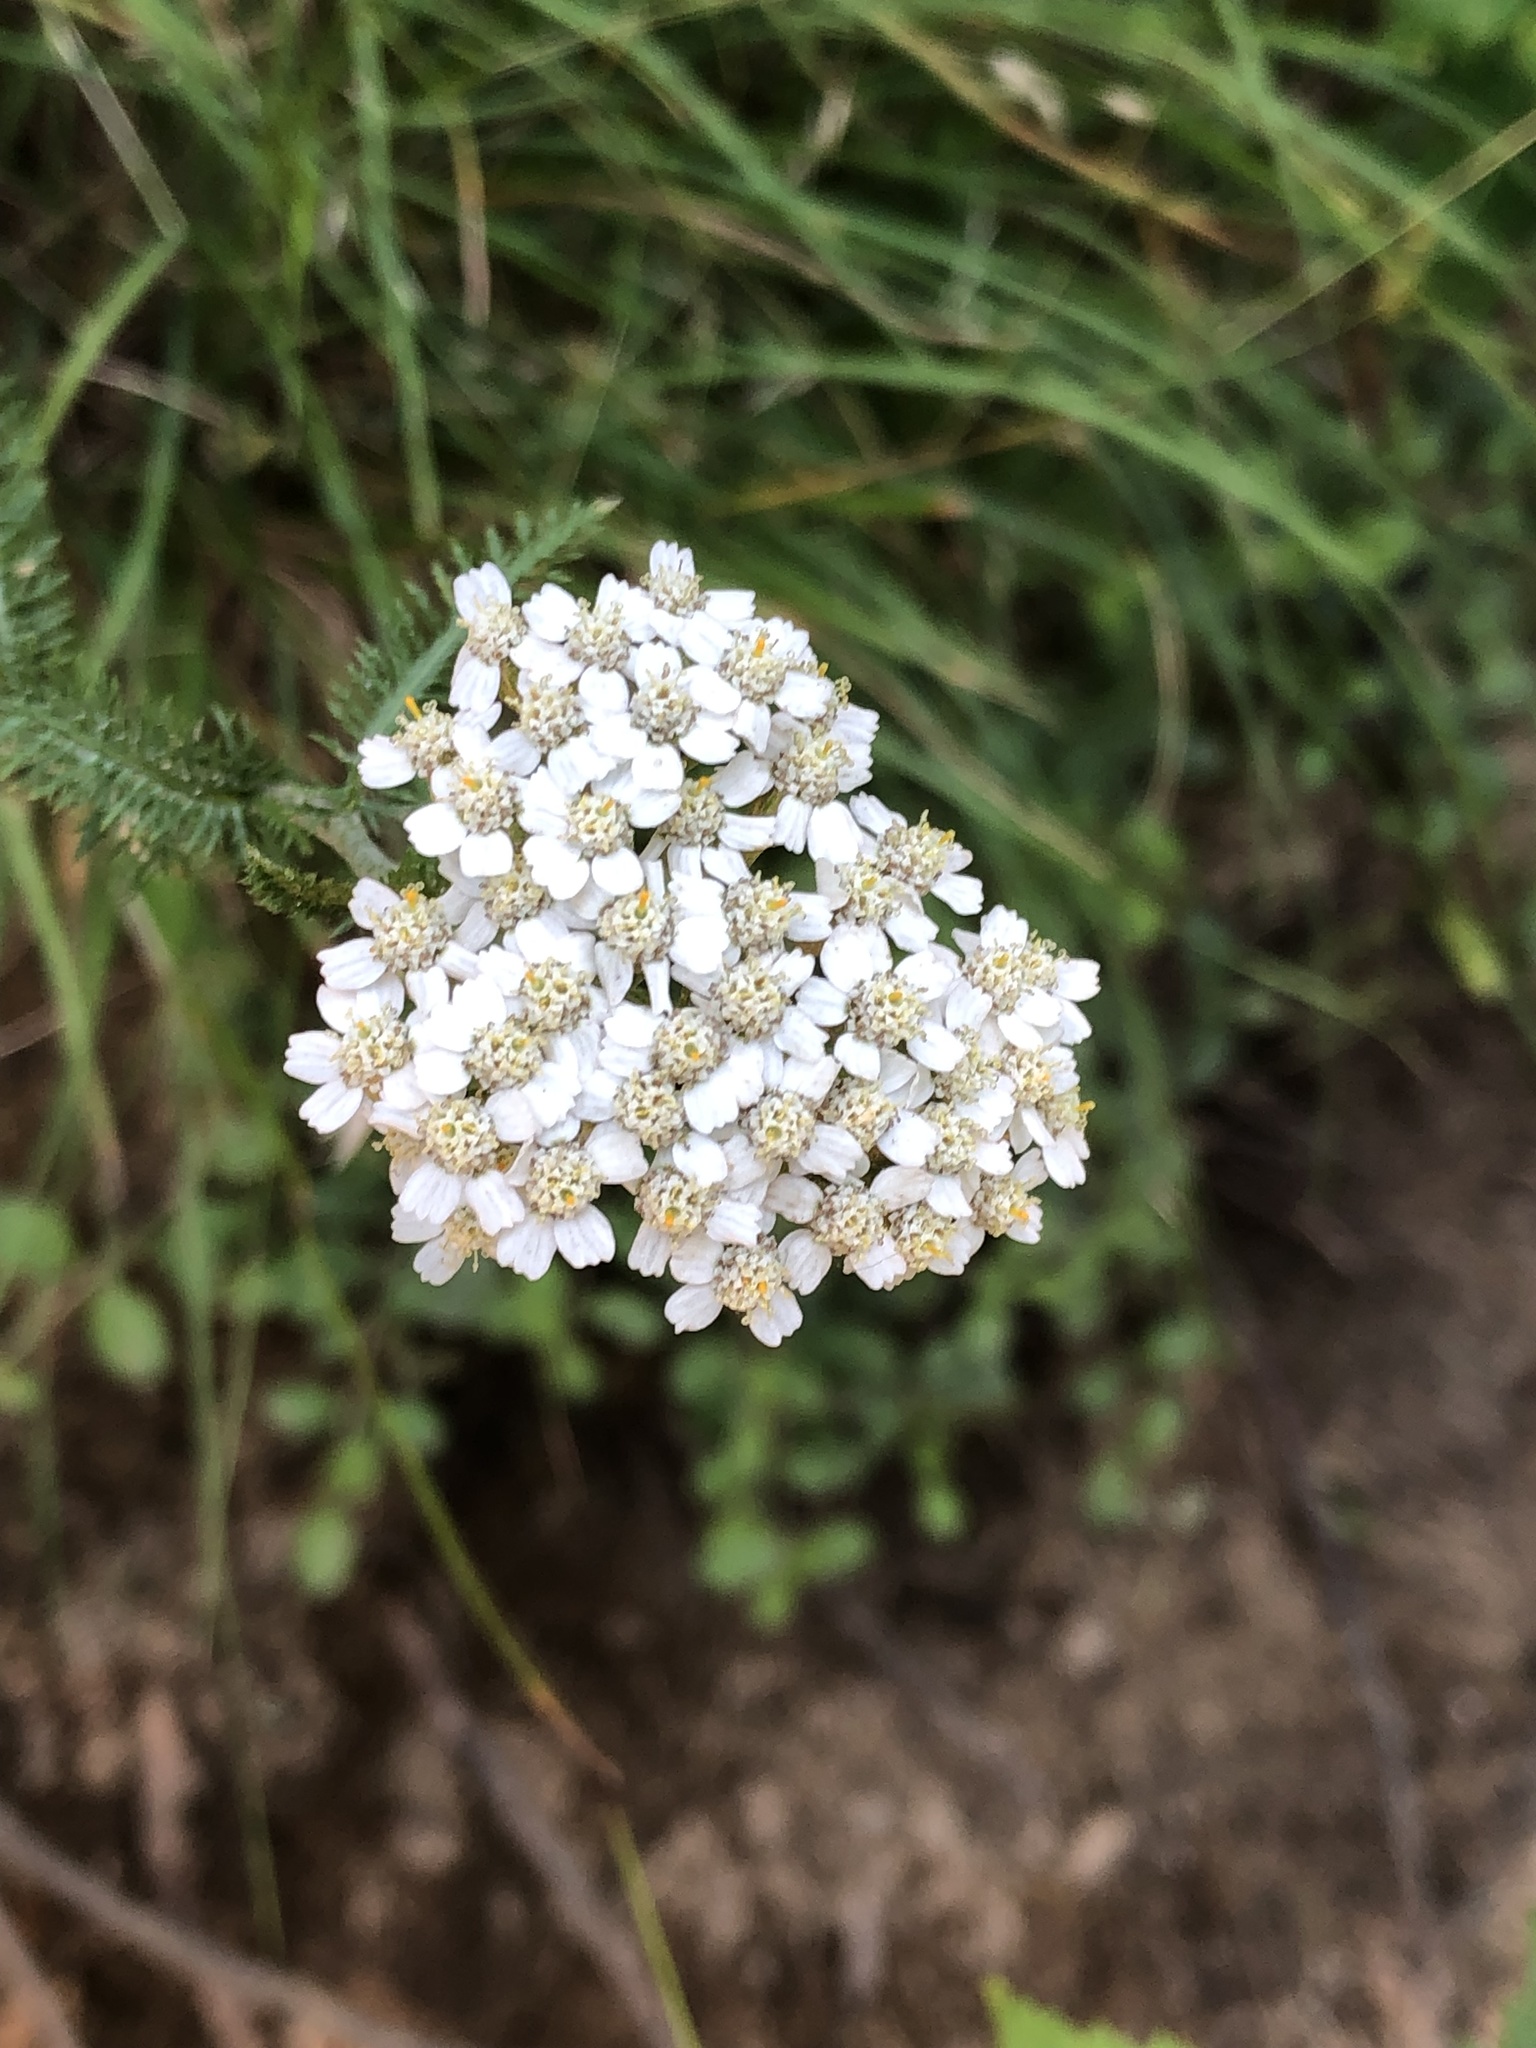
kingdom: Plantae
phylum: Tracheophyta
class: Magnoliopsida
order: Asterales
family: Asteraceae
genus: Achillea
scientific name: Achillea millefolium
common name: Yarrow
